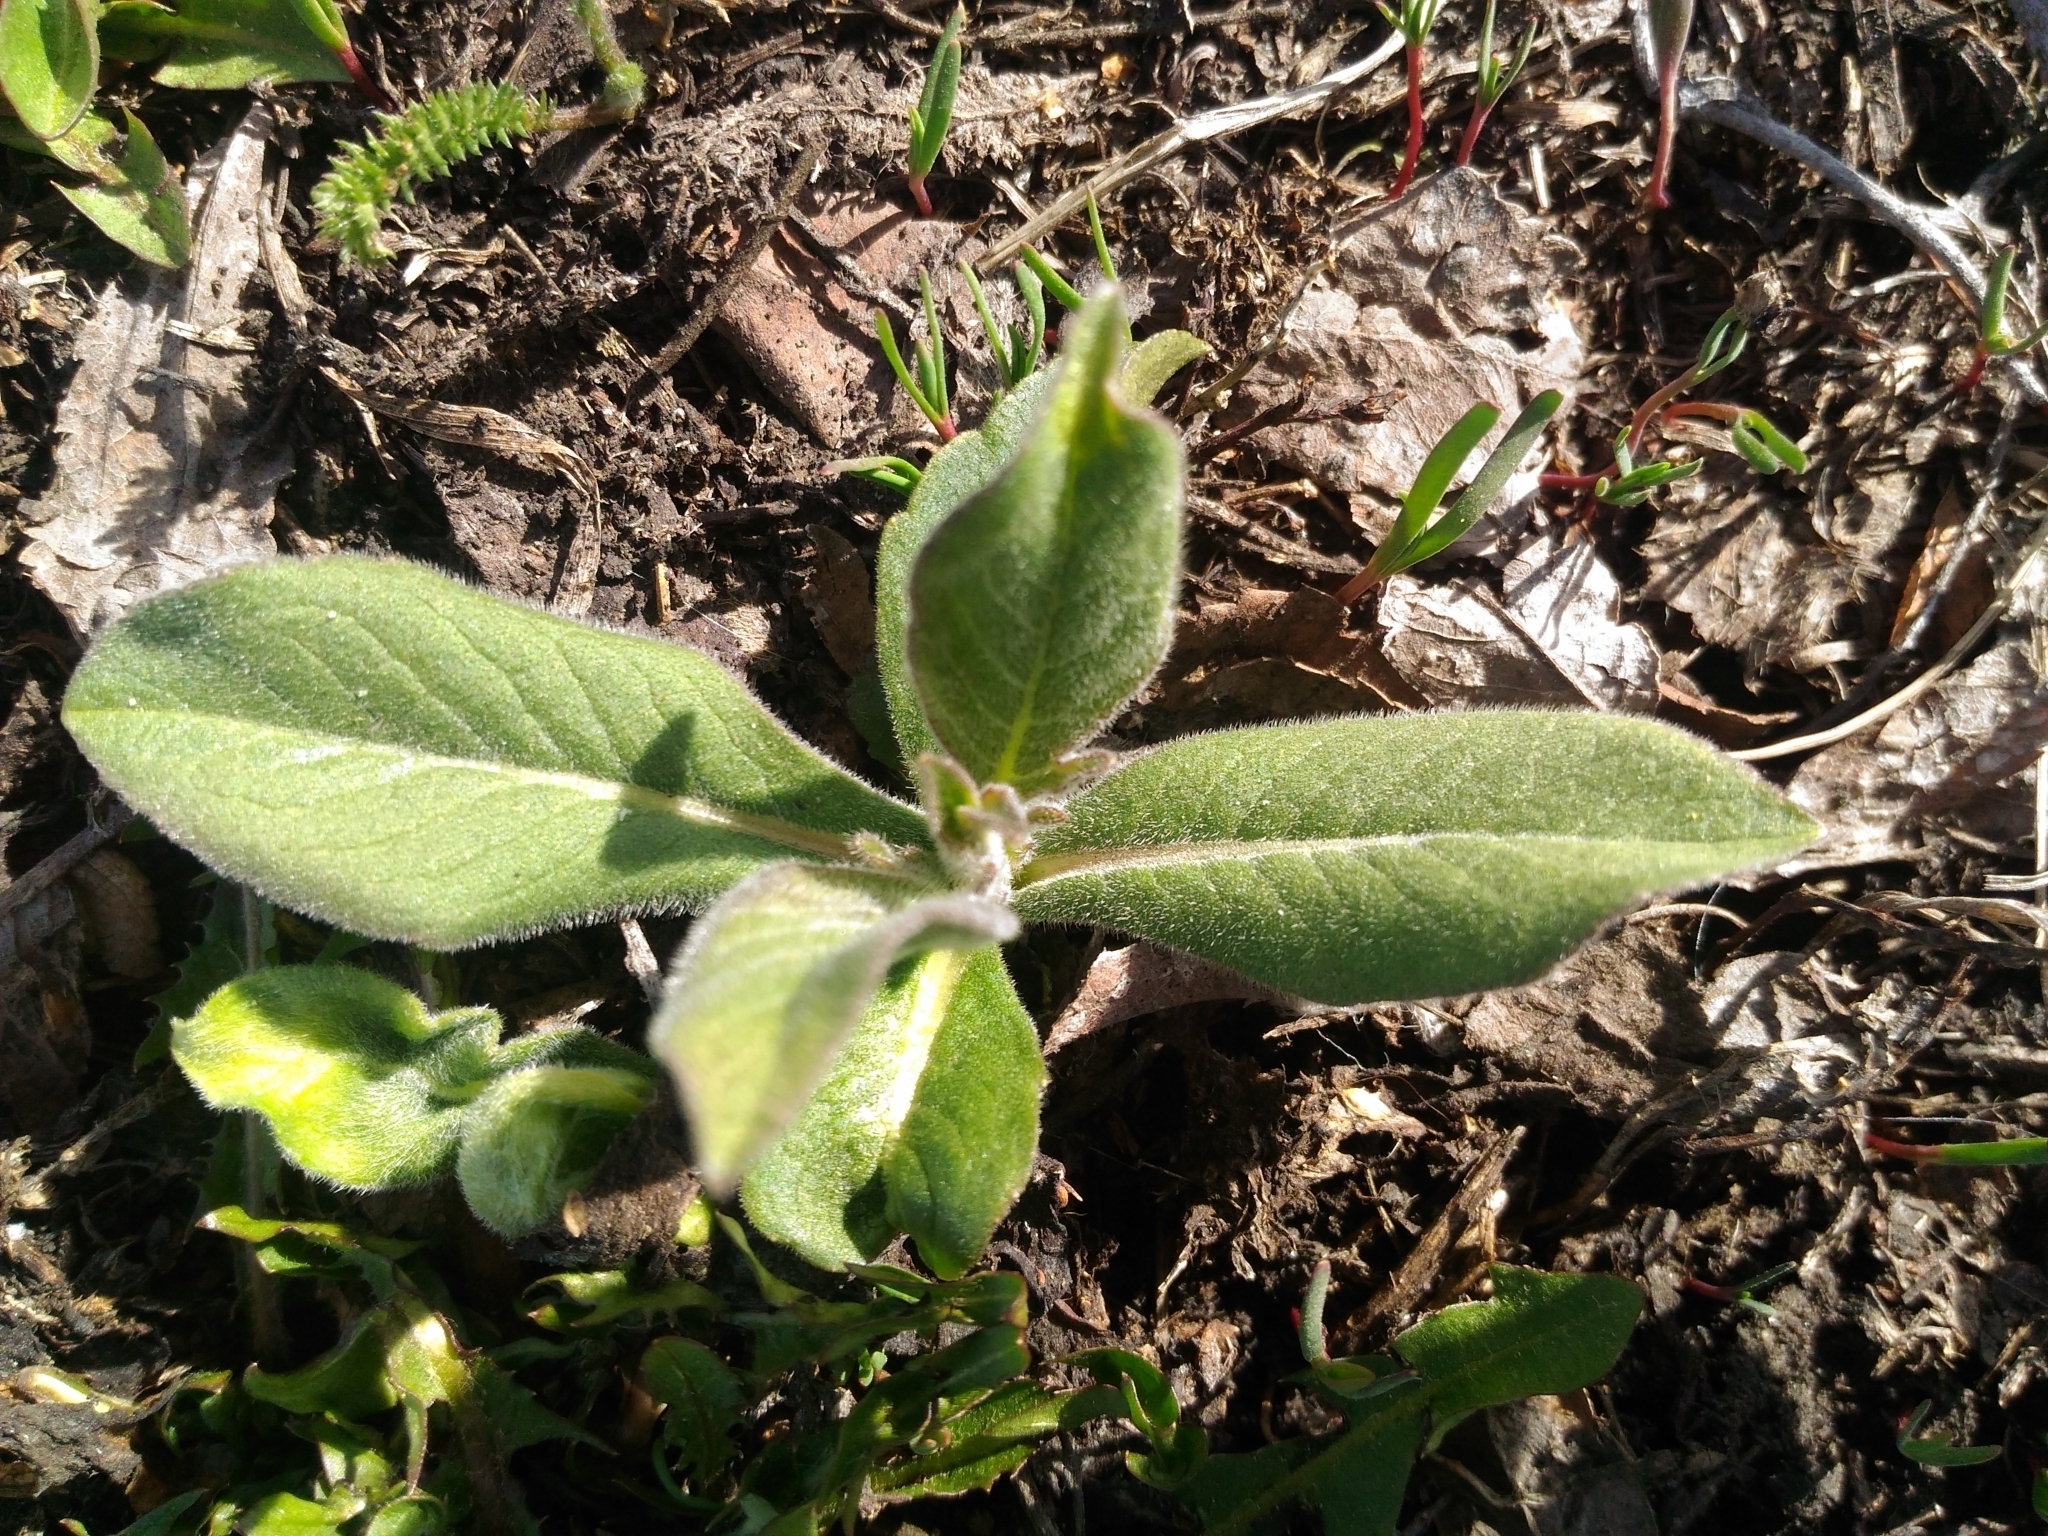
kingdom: Plantae
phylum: Tracheophyta
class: Magnoliopsida
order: Dipsacales
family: Caprifoliaceae
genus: Knautia
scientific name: Knautia arvensis
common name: Field scabiosa
